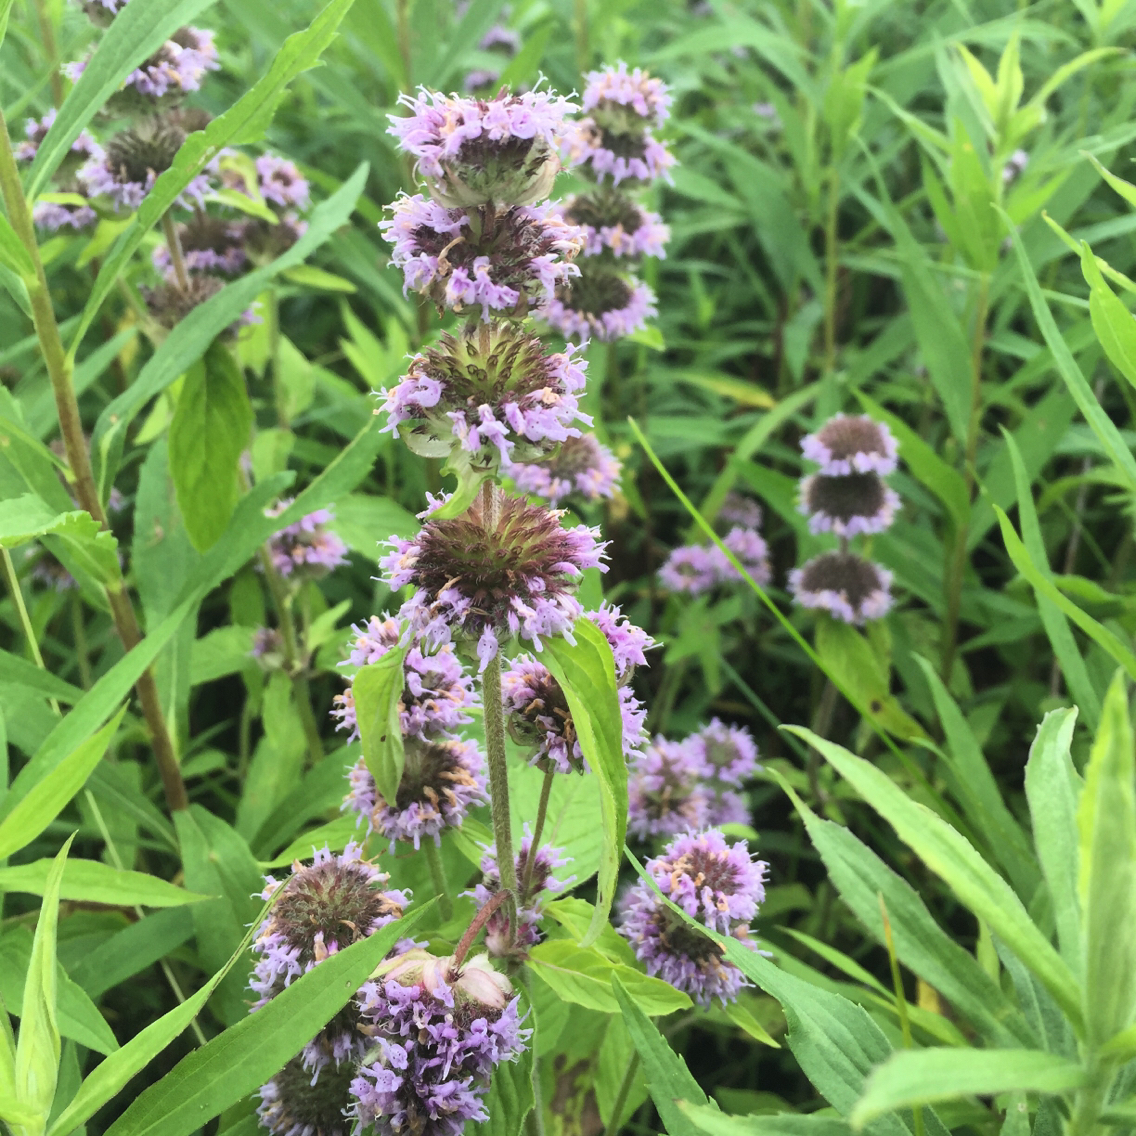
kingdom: Plantae
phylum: Tracheophyta
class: Magnoliopsida
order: Lamiales
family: Lamiaceae
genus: Blephilia
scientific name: Blephilia ciliata
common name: Downy blephilia
